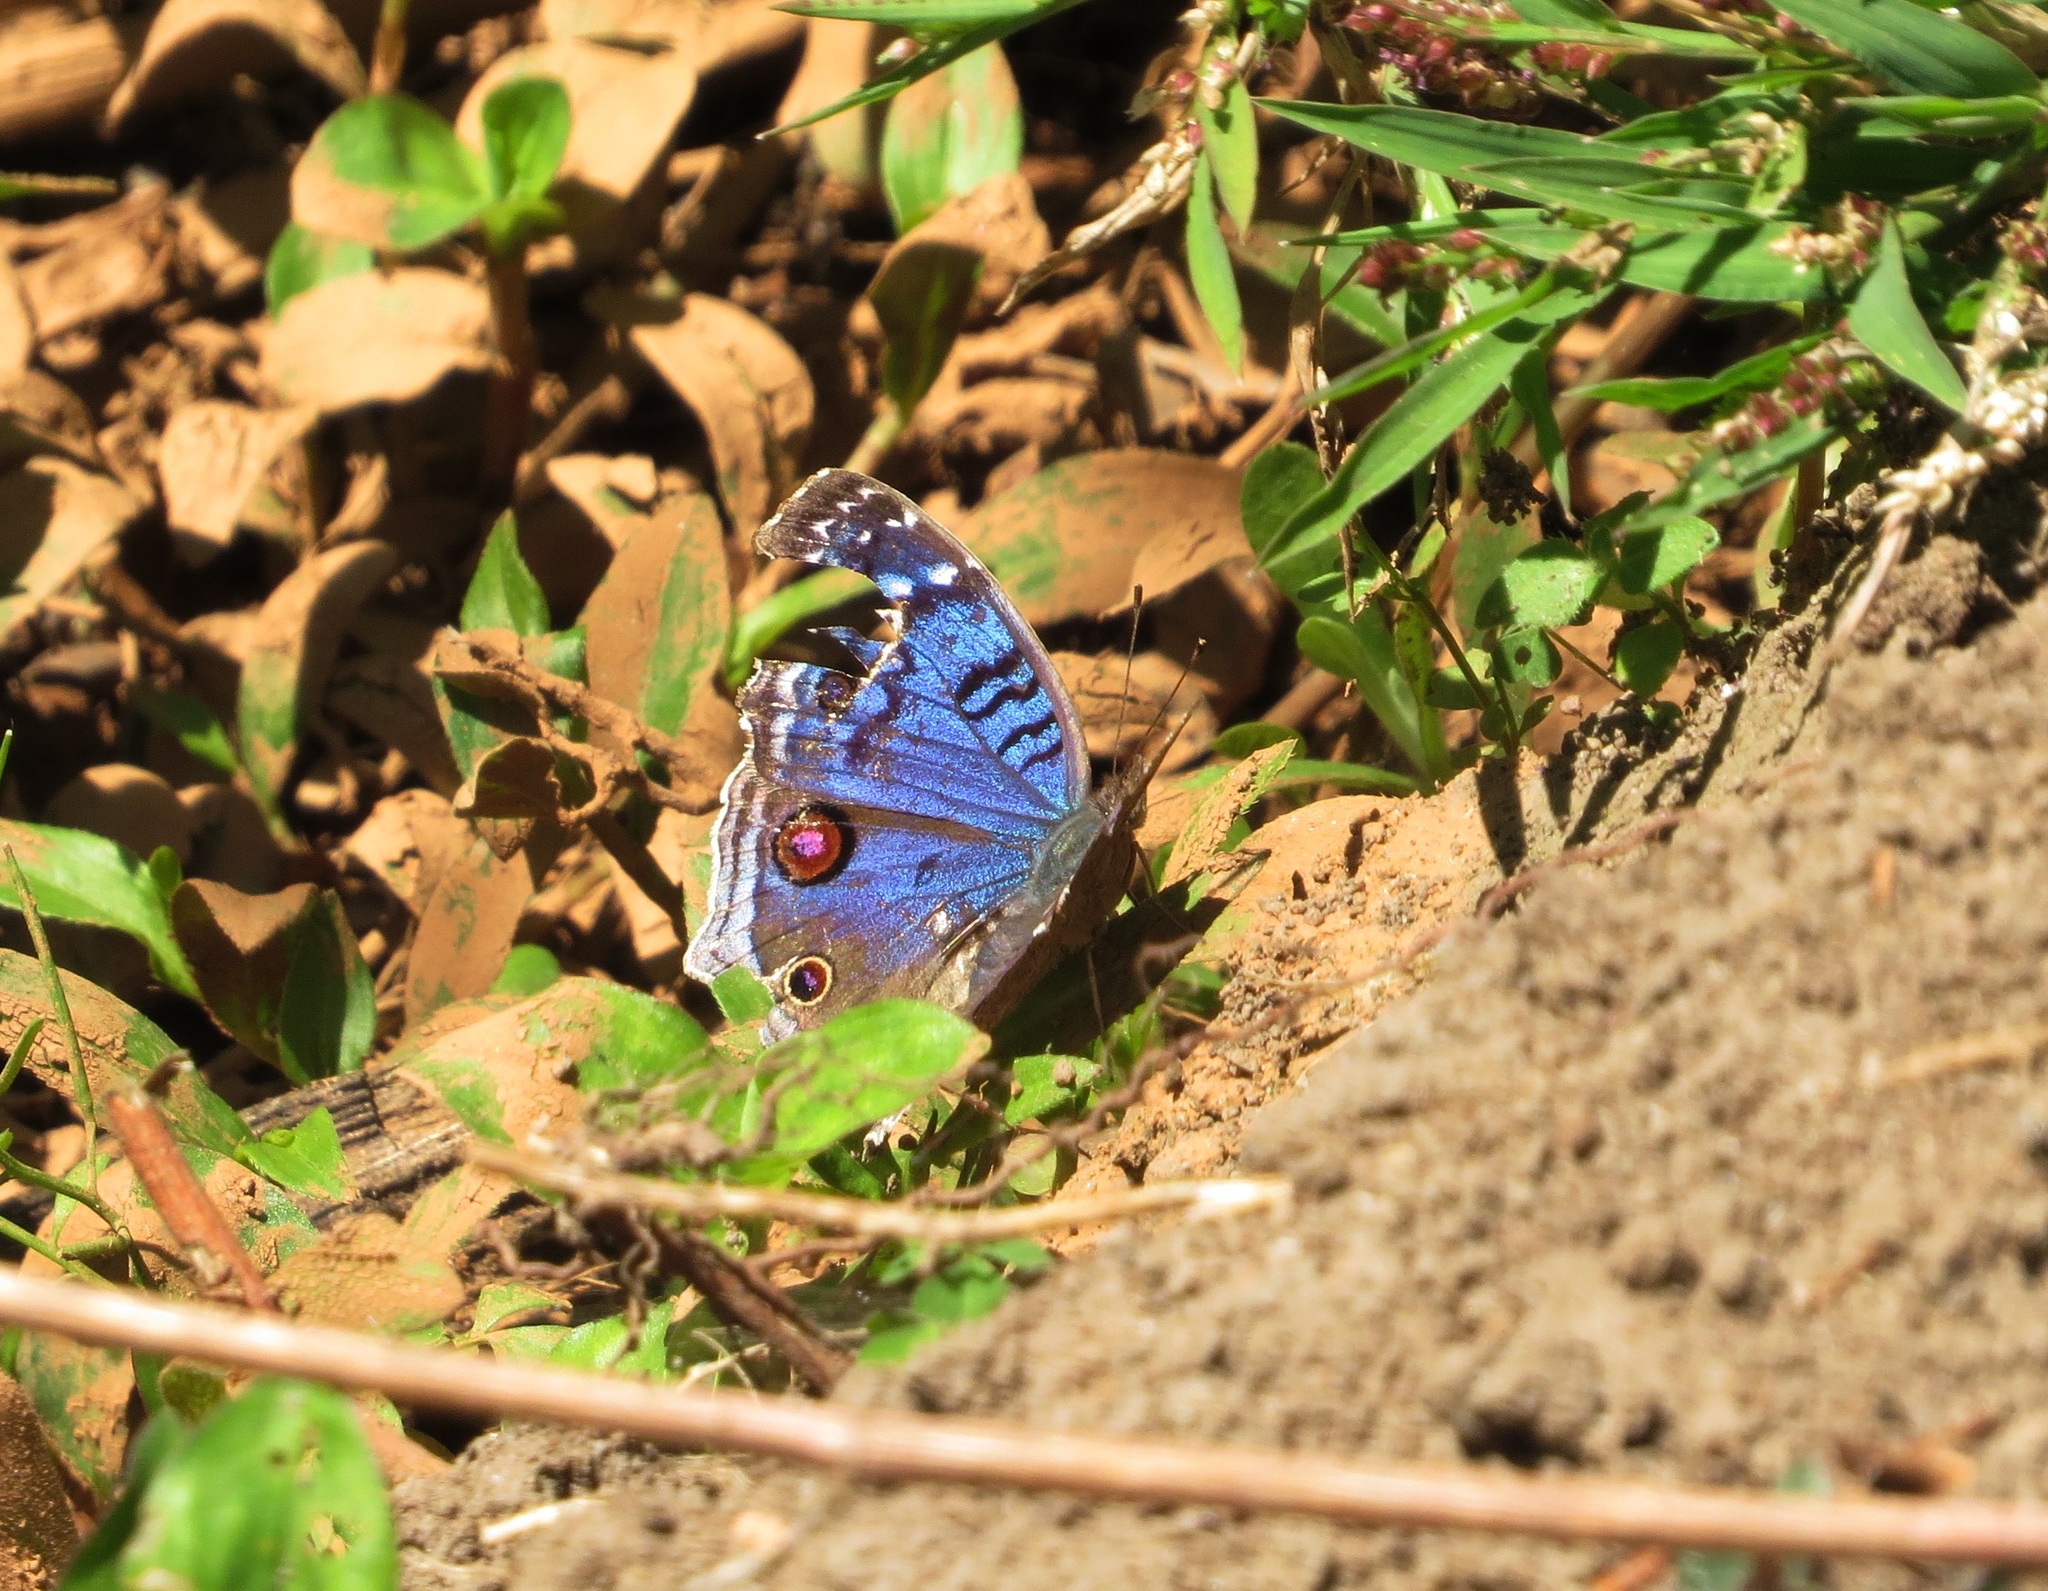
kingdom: Animalia
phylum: Arthropoda
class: Insecta
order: Lepidoptera
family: Nymphalidae
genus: Junonia
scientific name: Junonia rhadama
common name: Royal blue pansy
